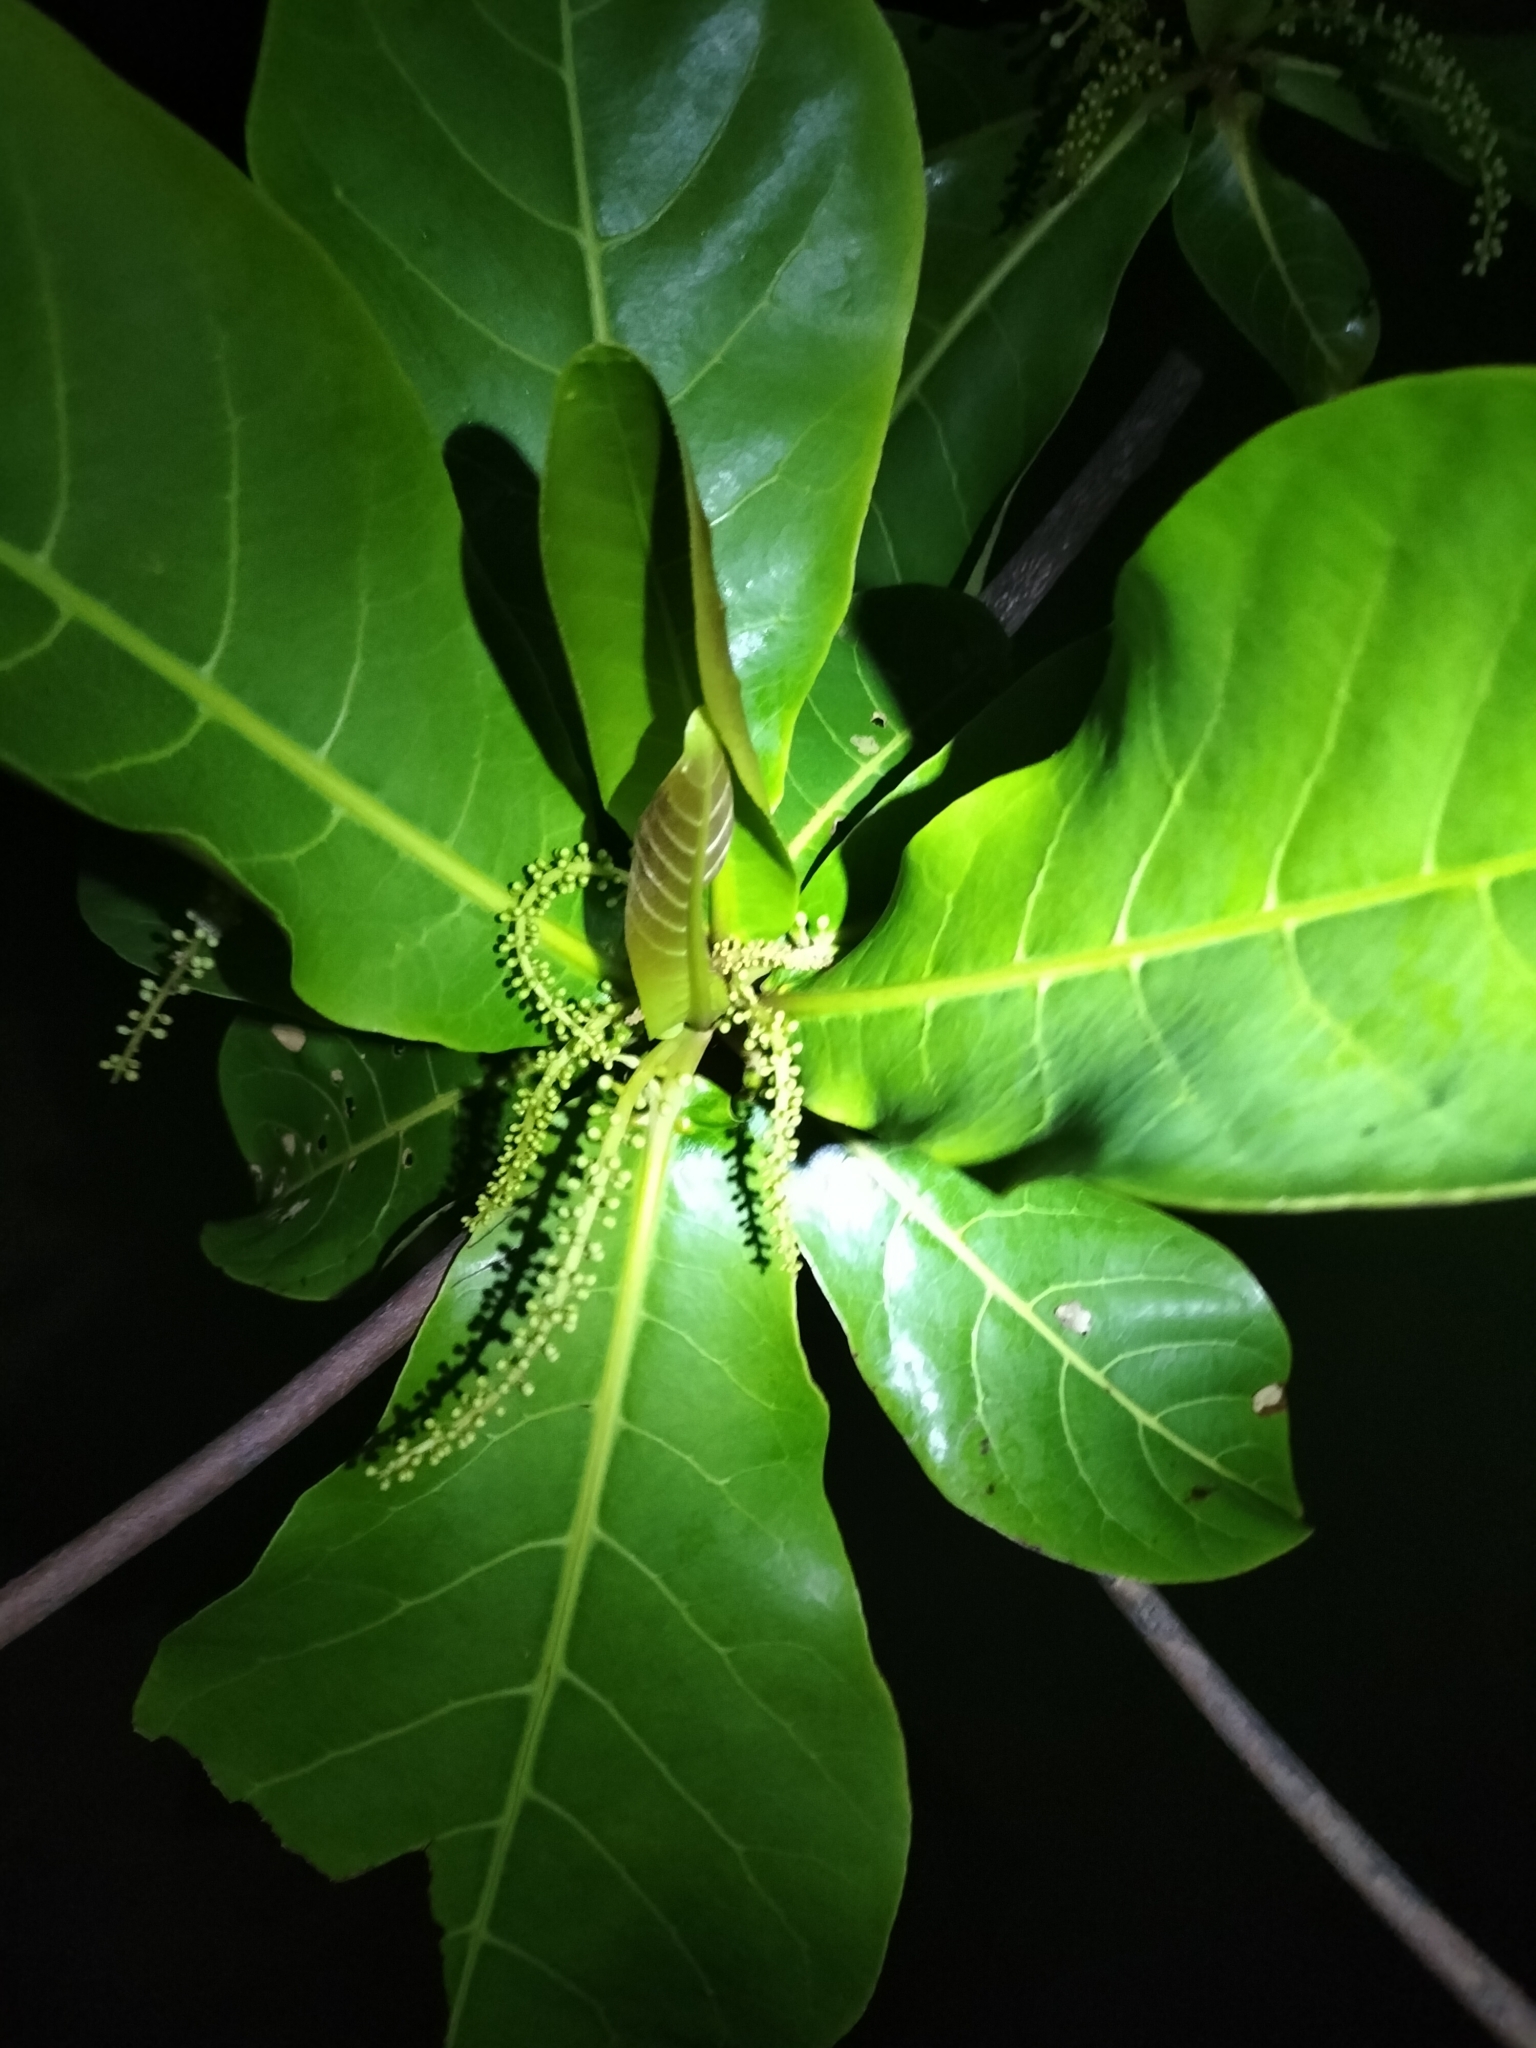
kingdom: Plantae
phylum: Tracheophyta
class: Magnoliopsida
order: Myrtales
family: Combretaceae
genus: Terminalia
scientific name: Terminalia catappa
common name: Tropical almond
